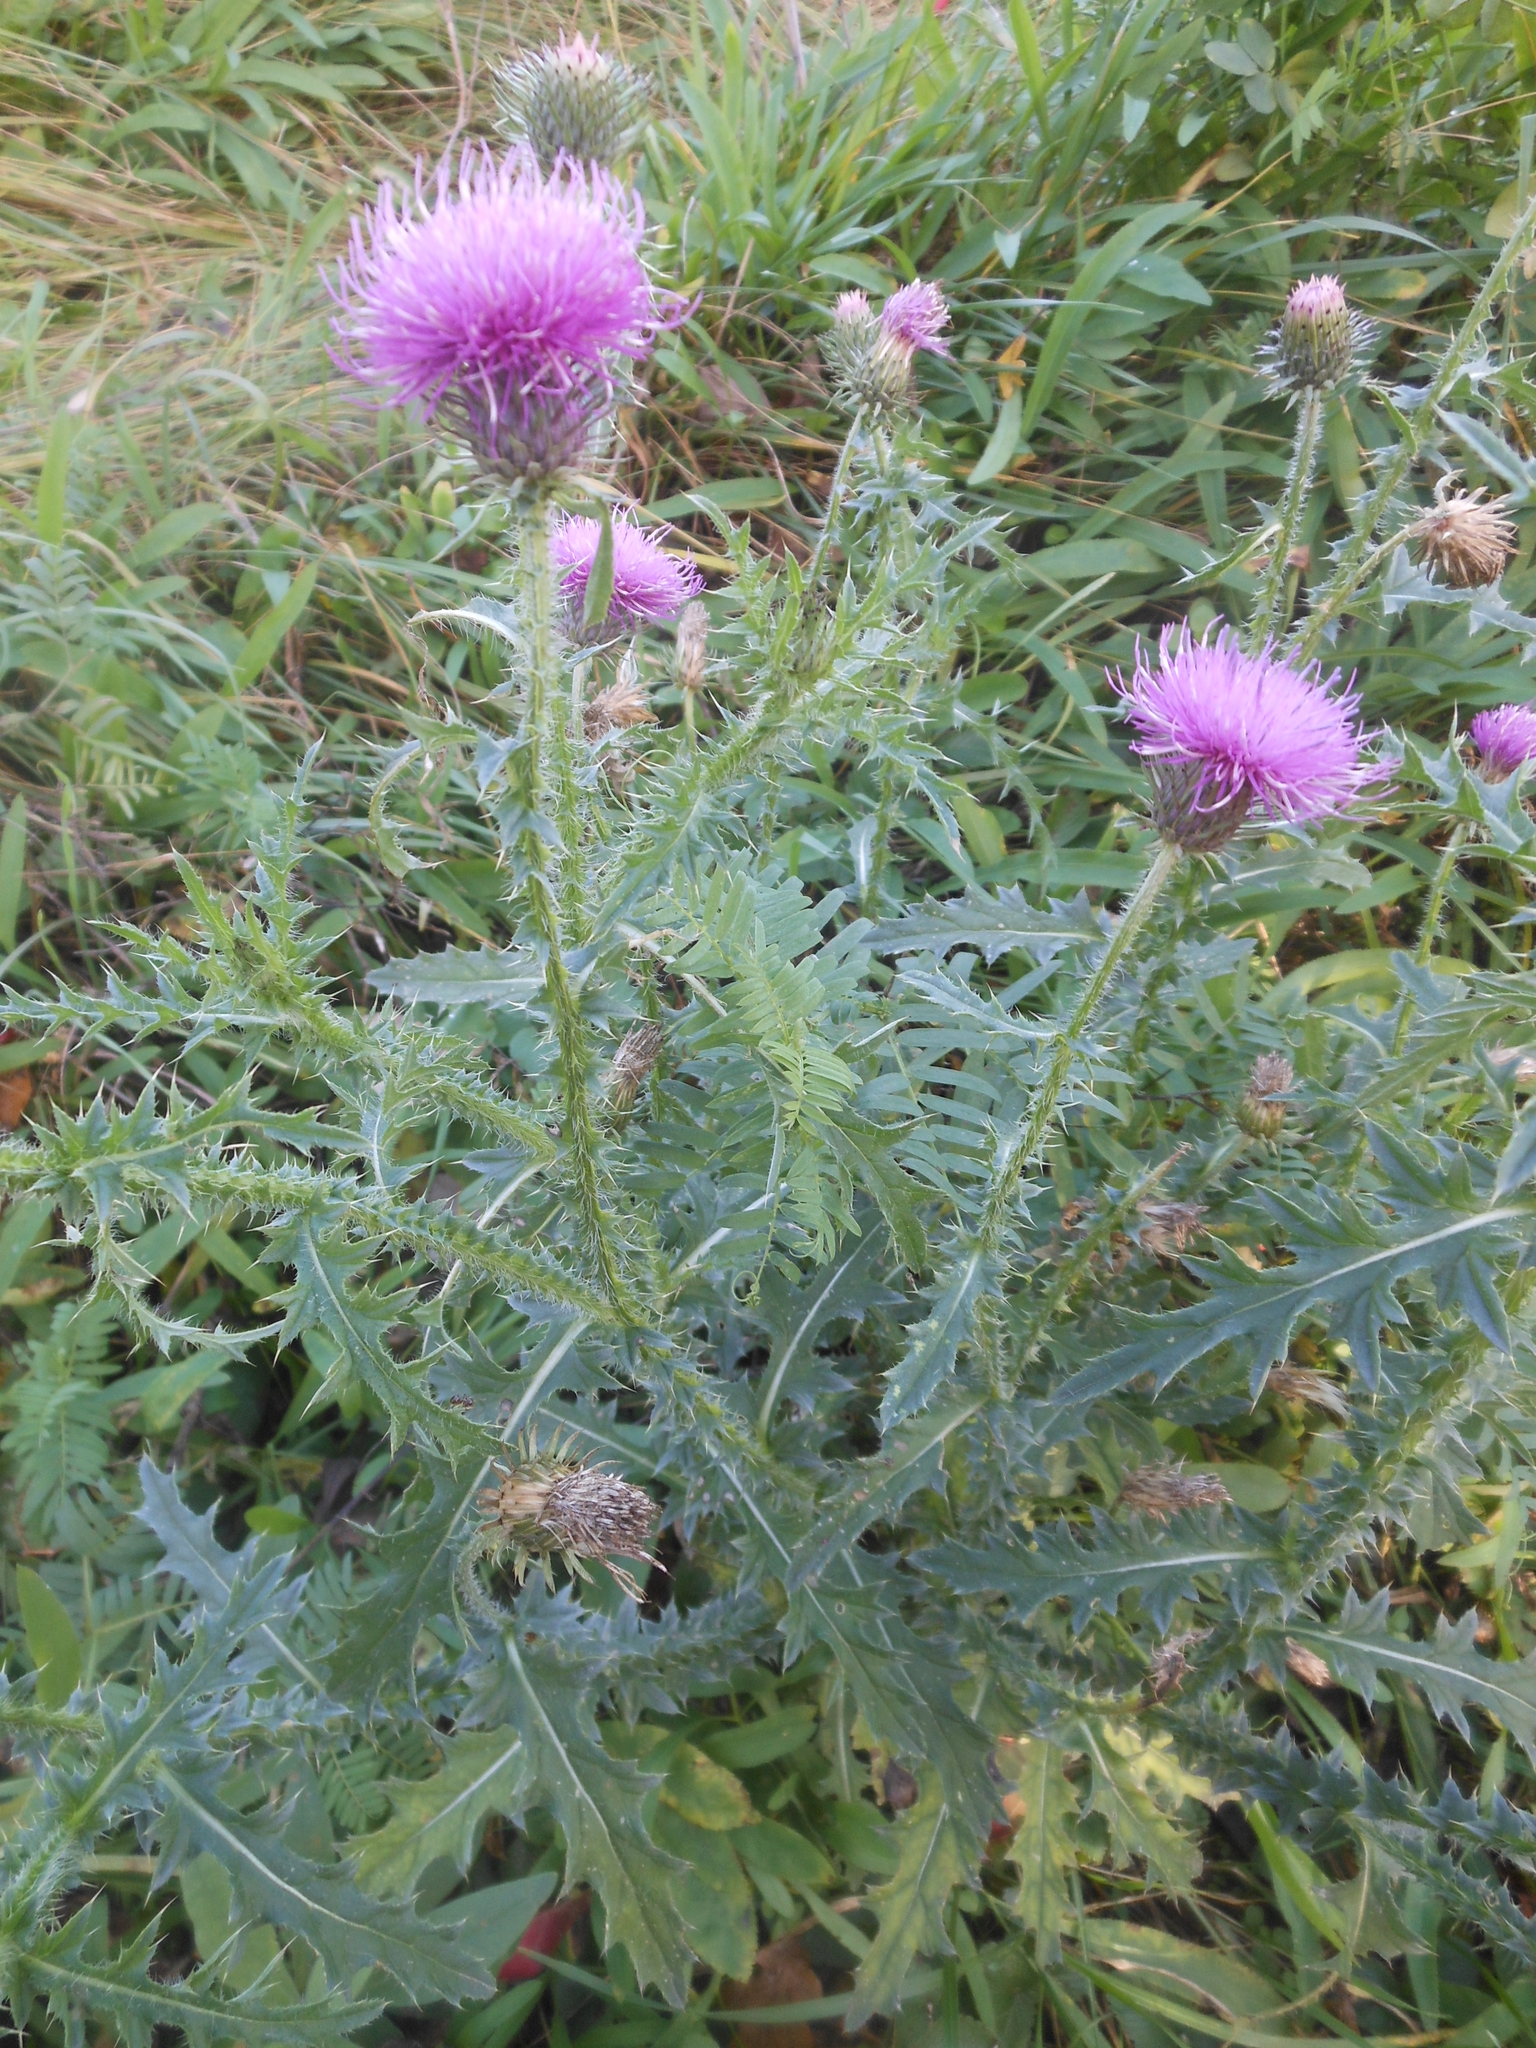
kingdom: Plantae
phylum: Tracheophyta
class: Magnoliopsida
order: Asterales
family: Asteraceae
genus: Carduus
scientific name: Carduus acanthoides
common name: Plumeless thistle
